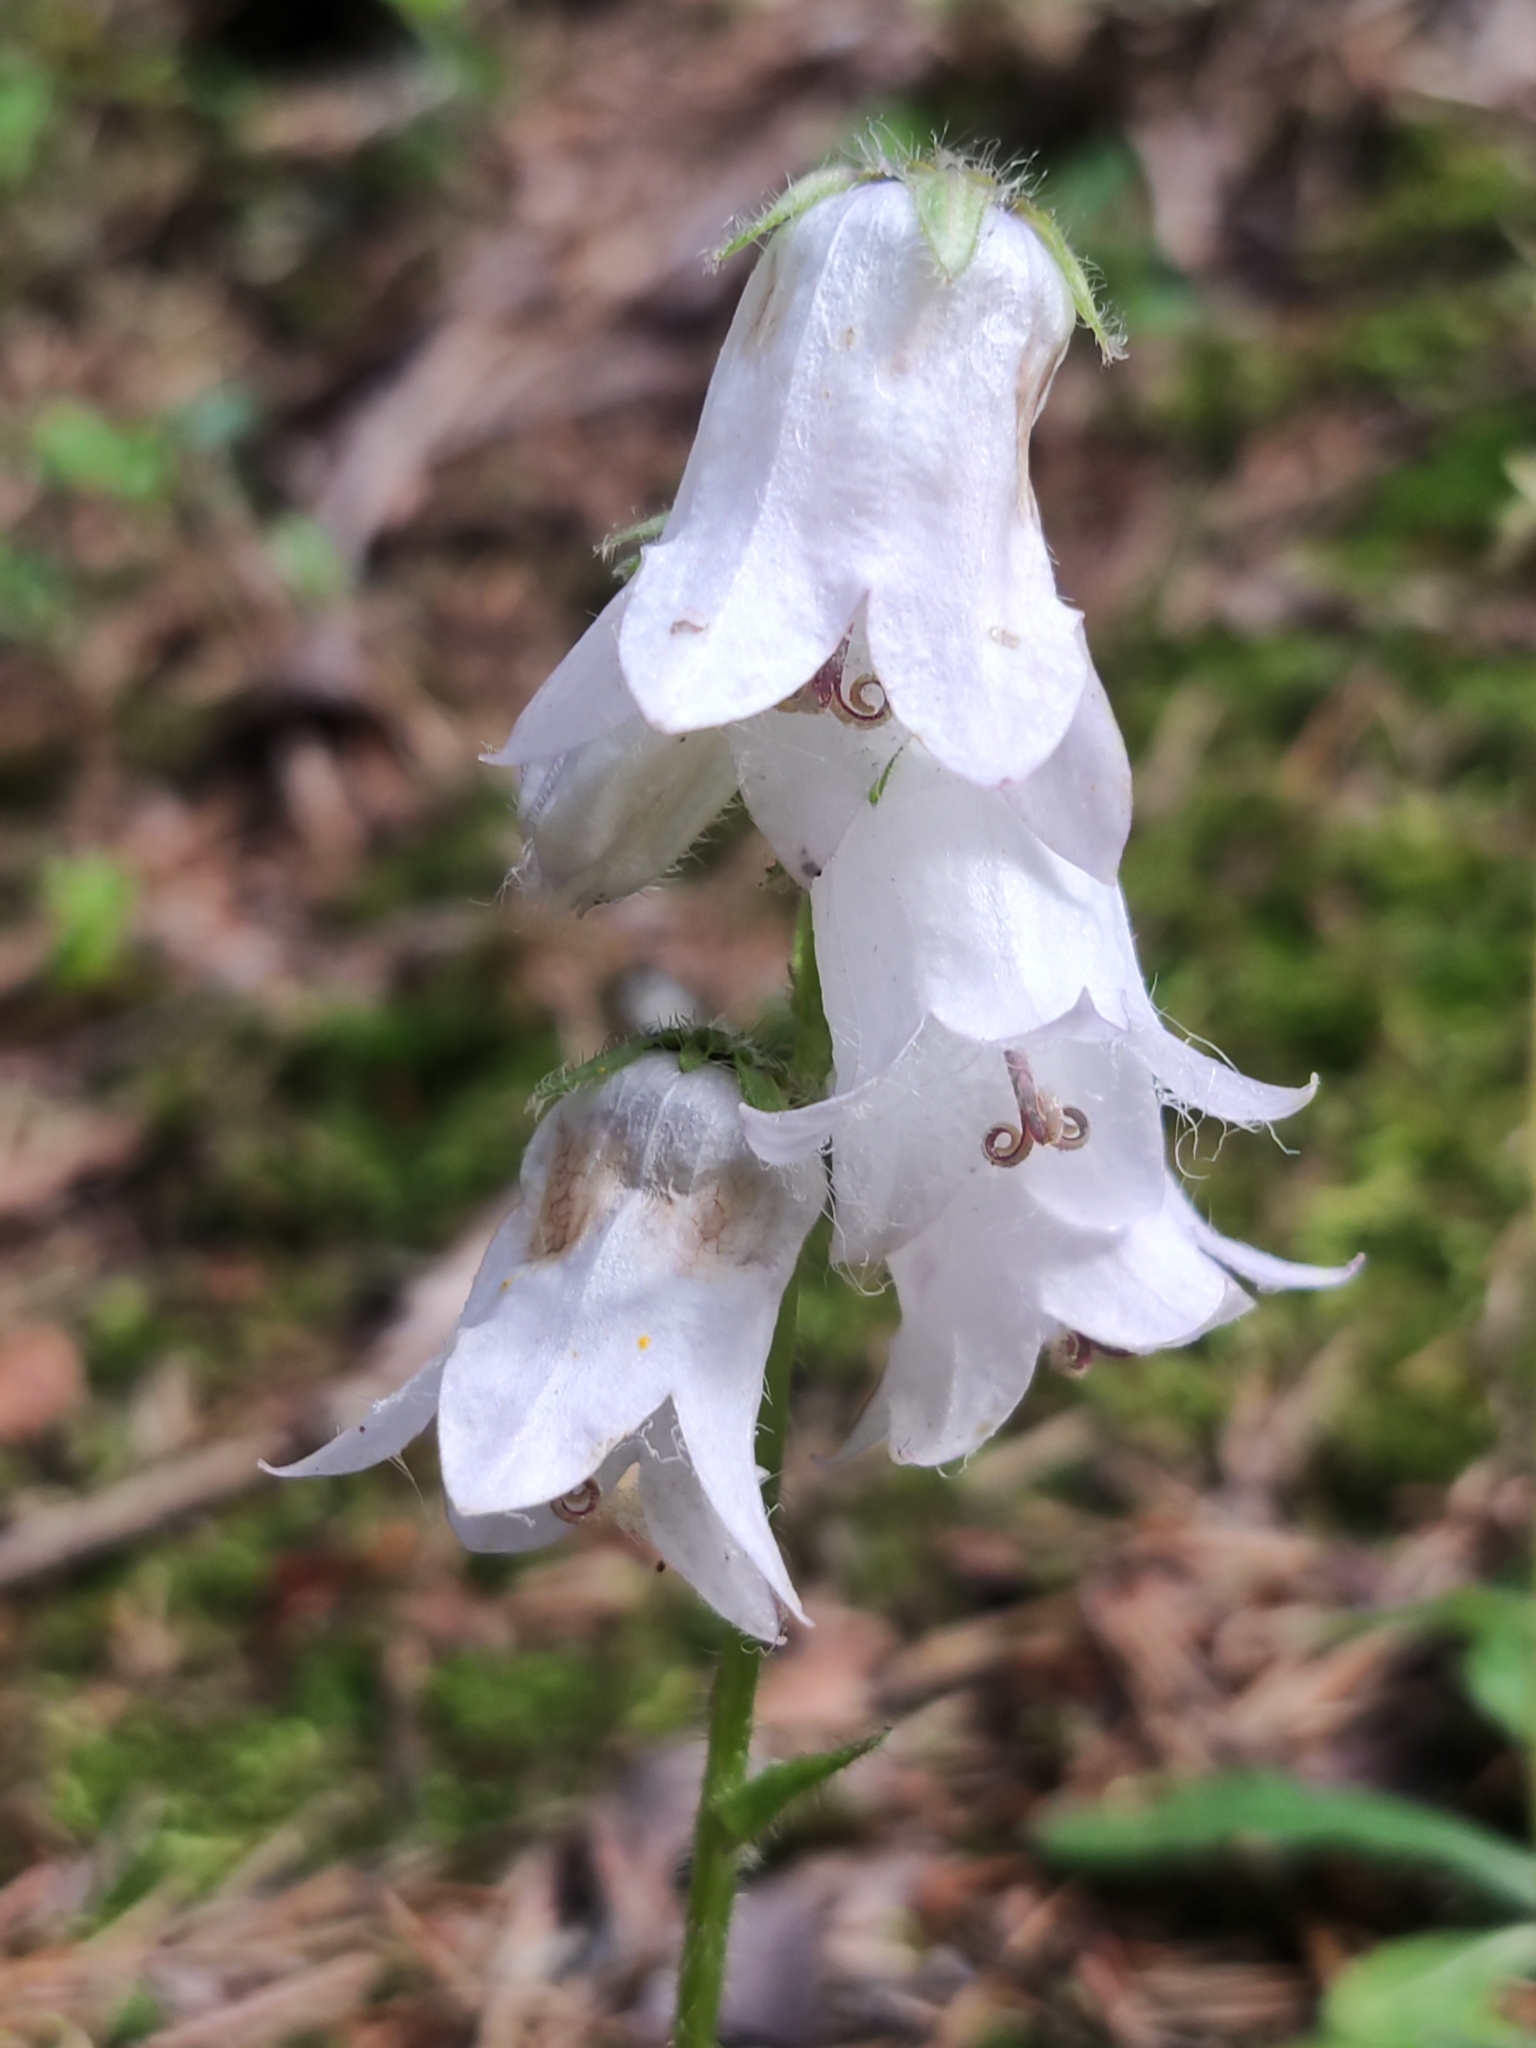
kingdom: Plantae
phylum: Tracheophyta
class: Magnoliopsida
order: Asterales
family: Campanulaceae
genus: Campanula
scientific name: Campanula barbata
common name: Bearded bellflower
